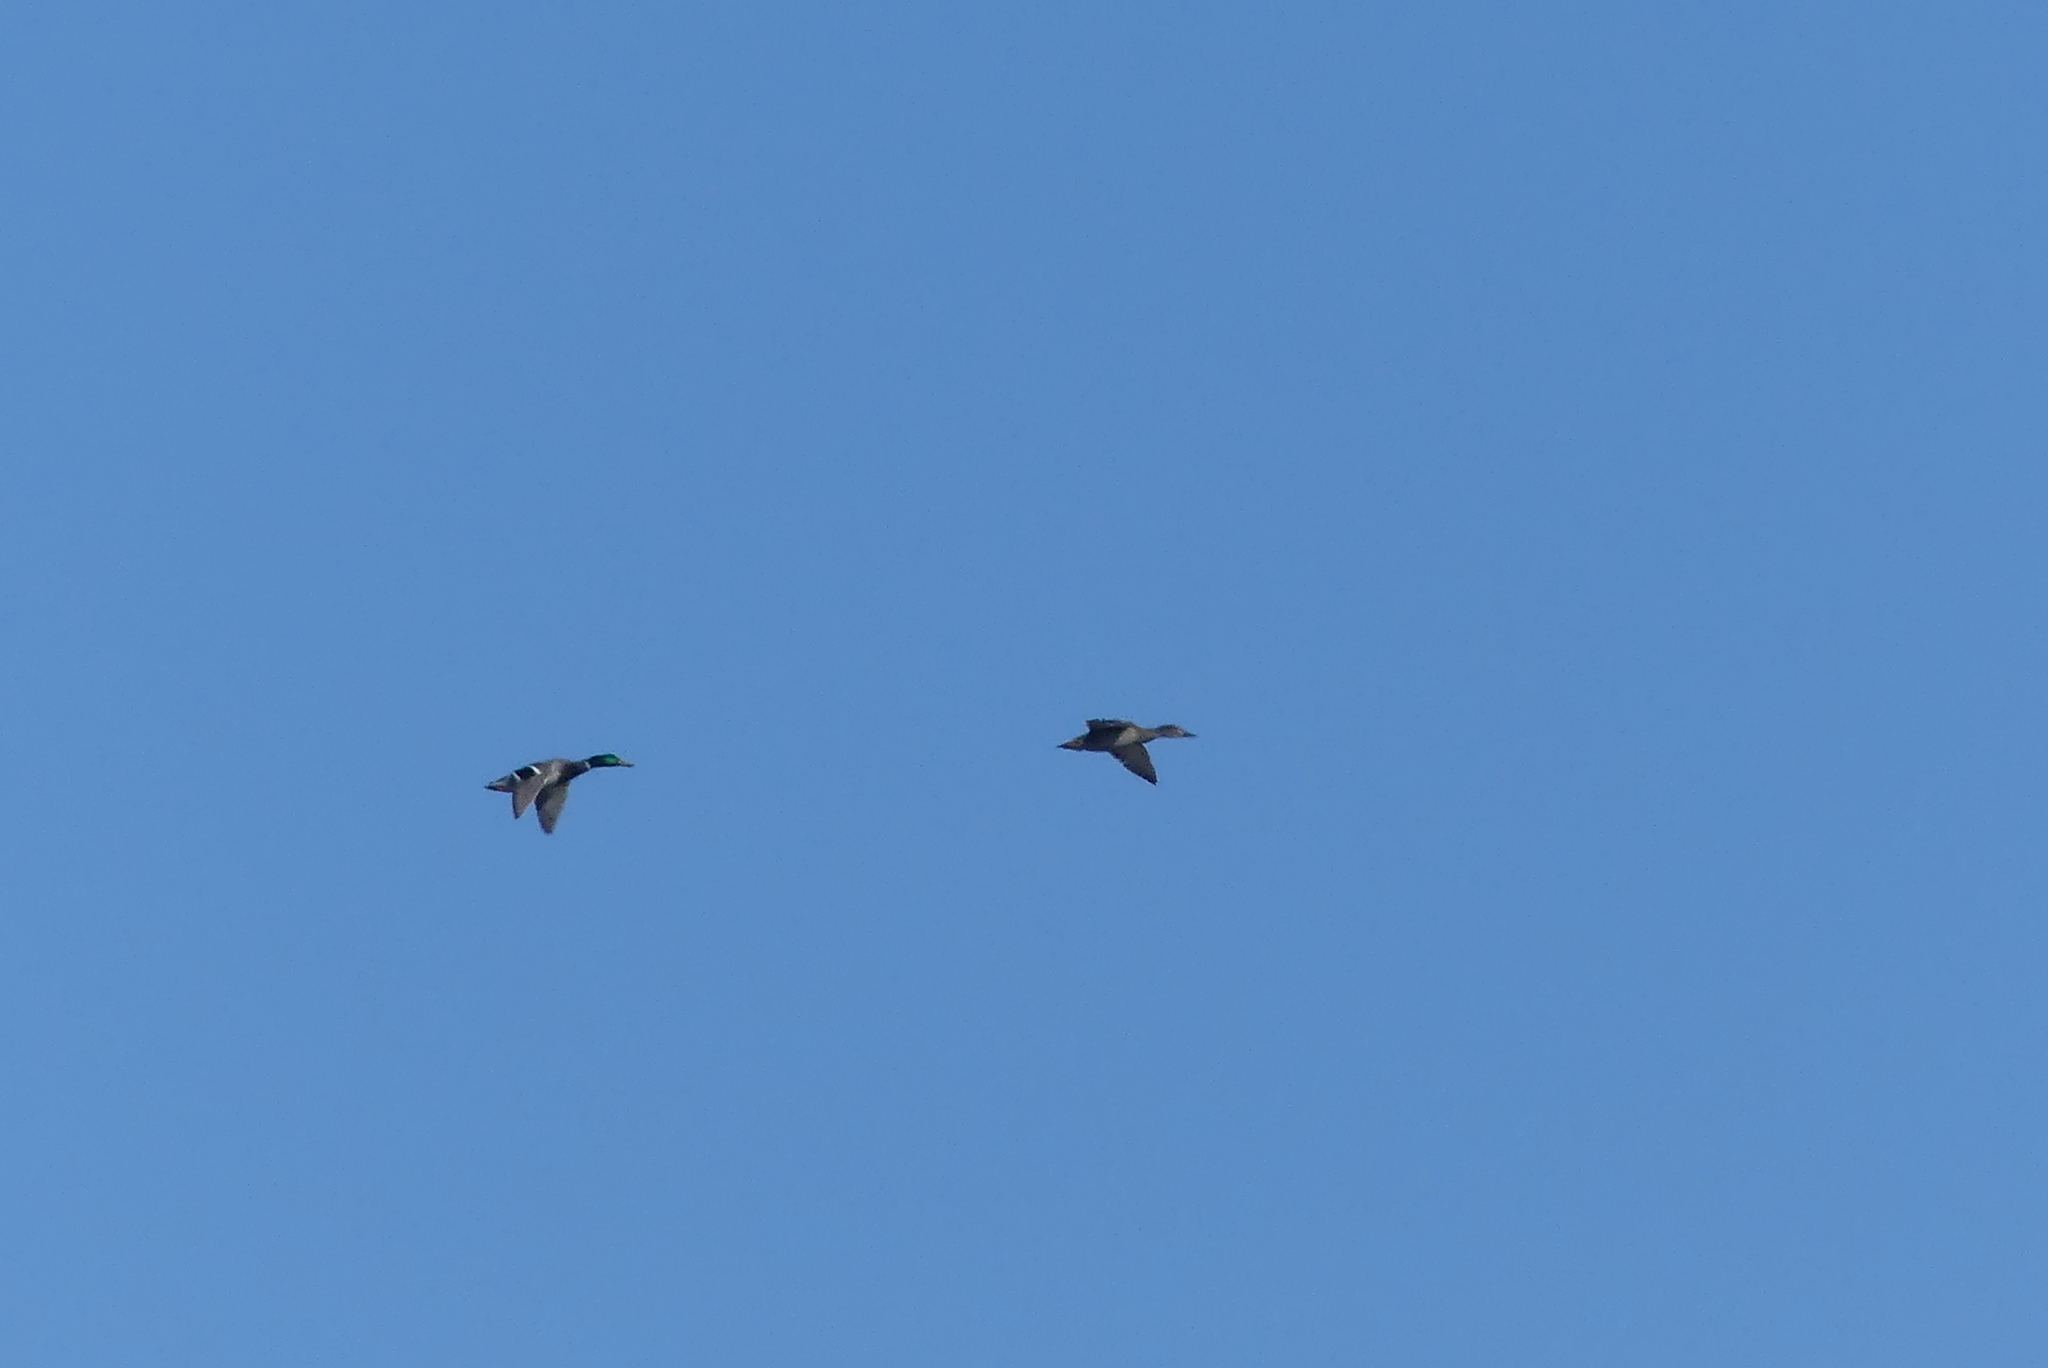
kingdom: Animalia
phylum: Chordata
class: Aves
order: Anseriformes
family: Anatidae
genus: Anas
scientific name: Anas platyrhynchos
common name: Mallard
